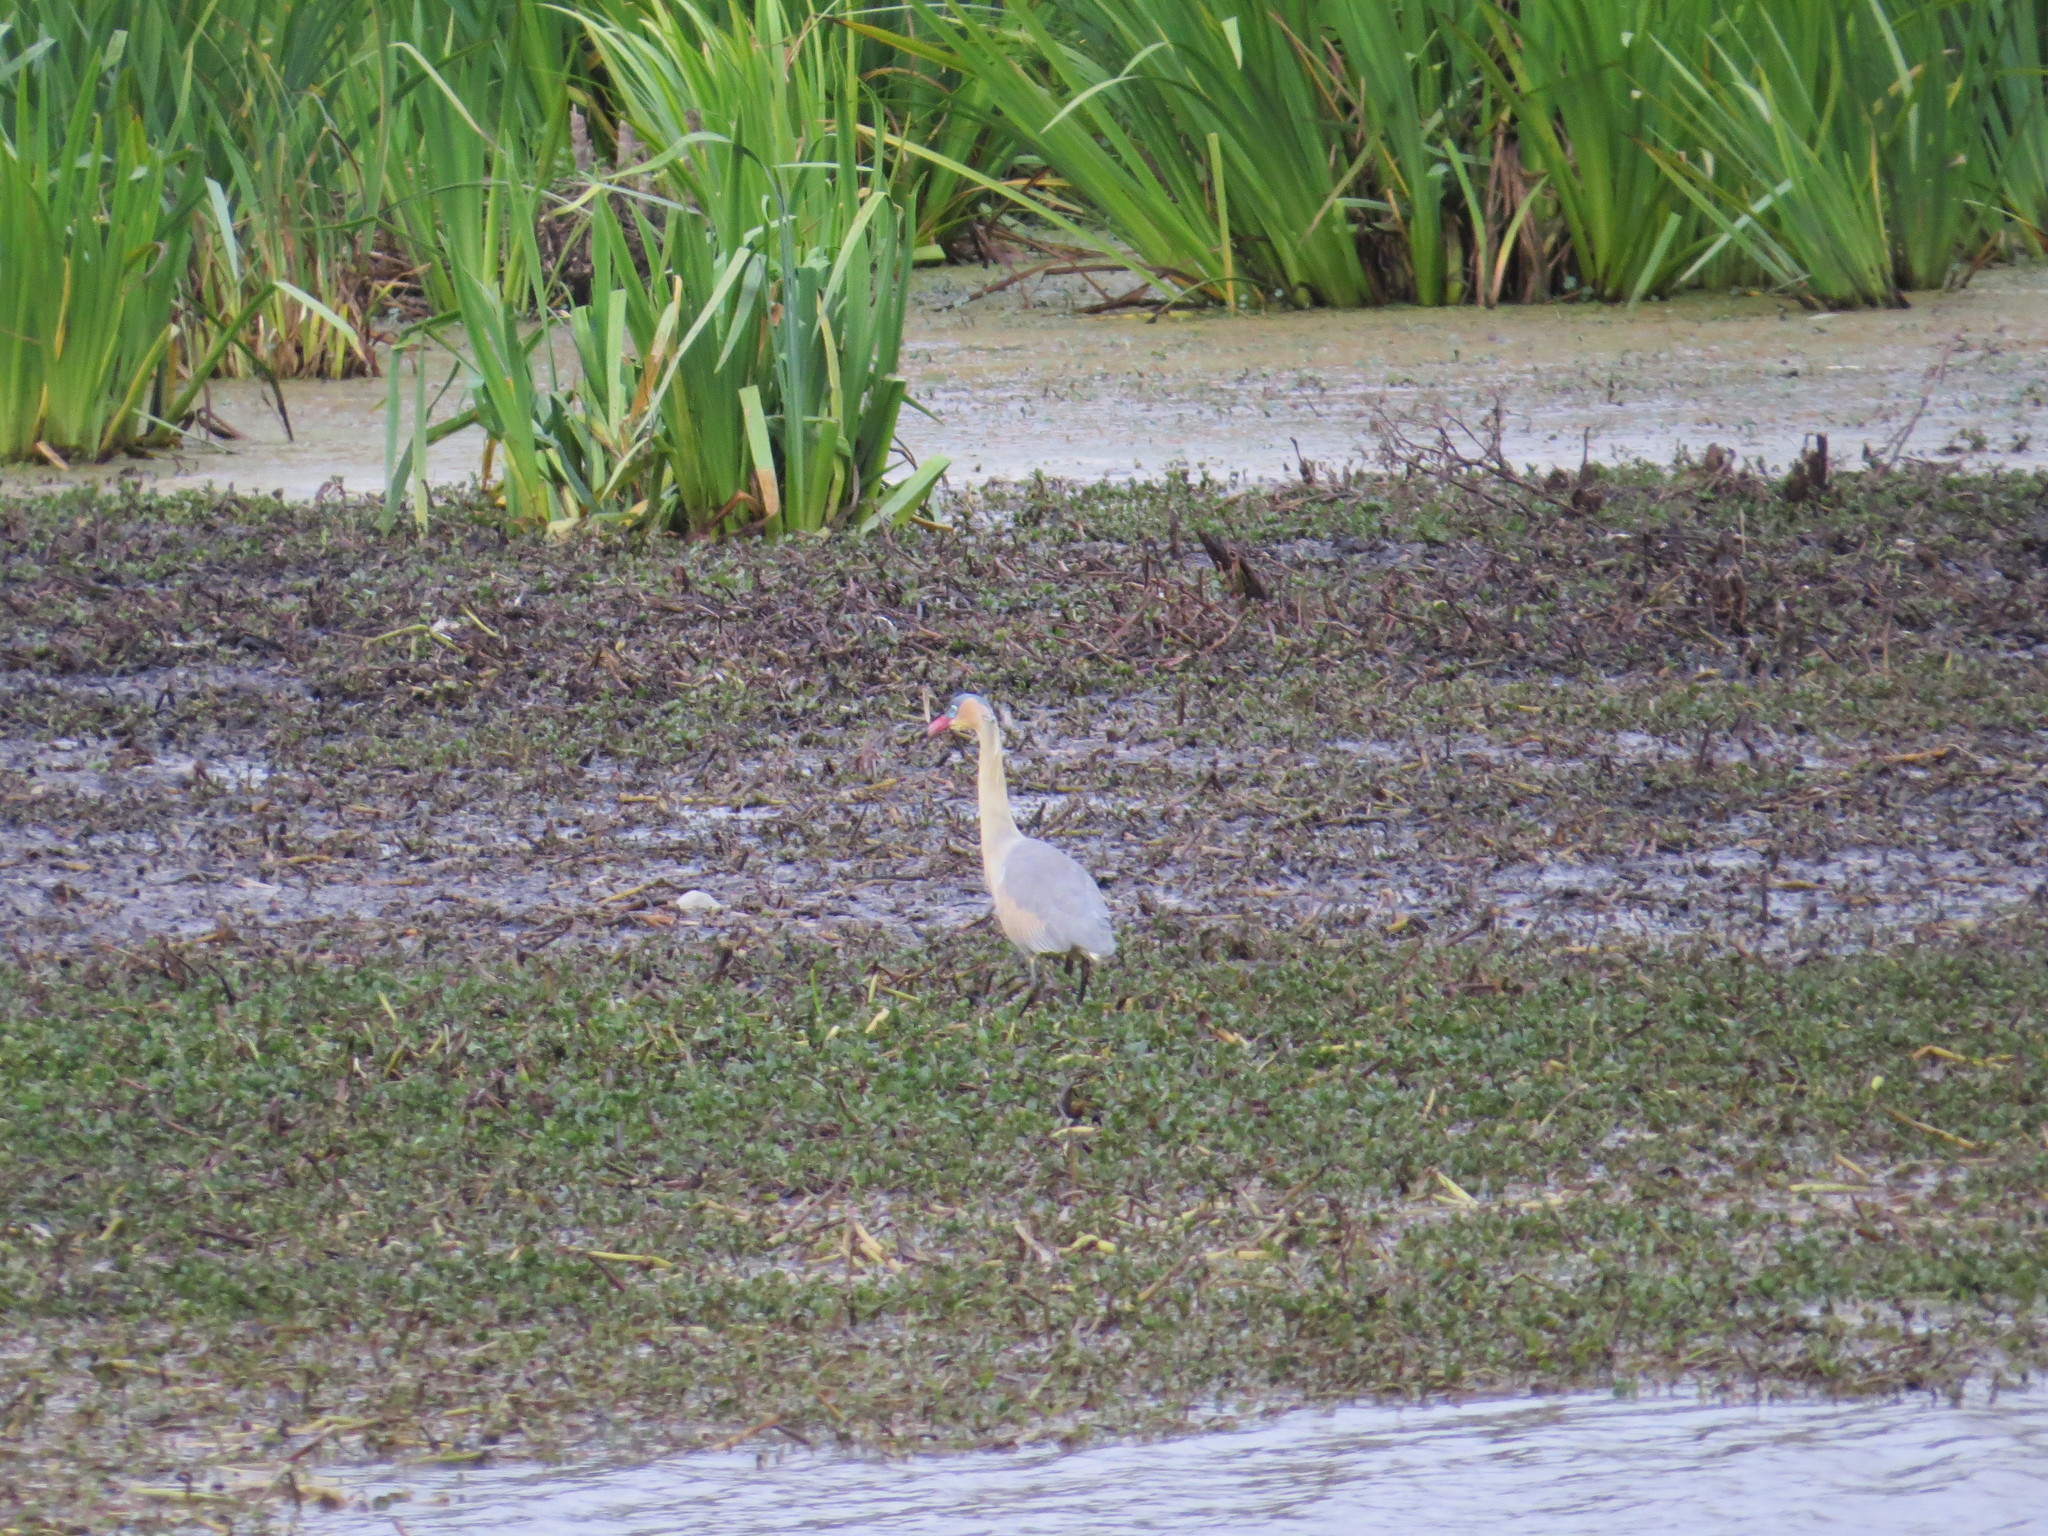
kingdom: Animalia
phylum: Chordata
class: Aves
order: Pelecaniformes
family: Ardeidae
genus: Syrigma
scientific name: Syrigma sibilatrix
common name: Whistling heron
